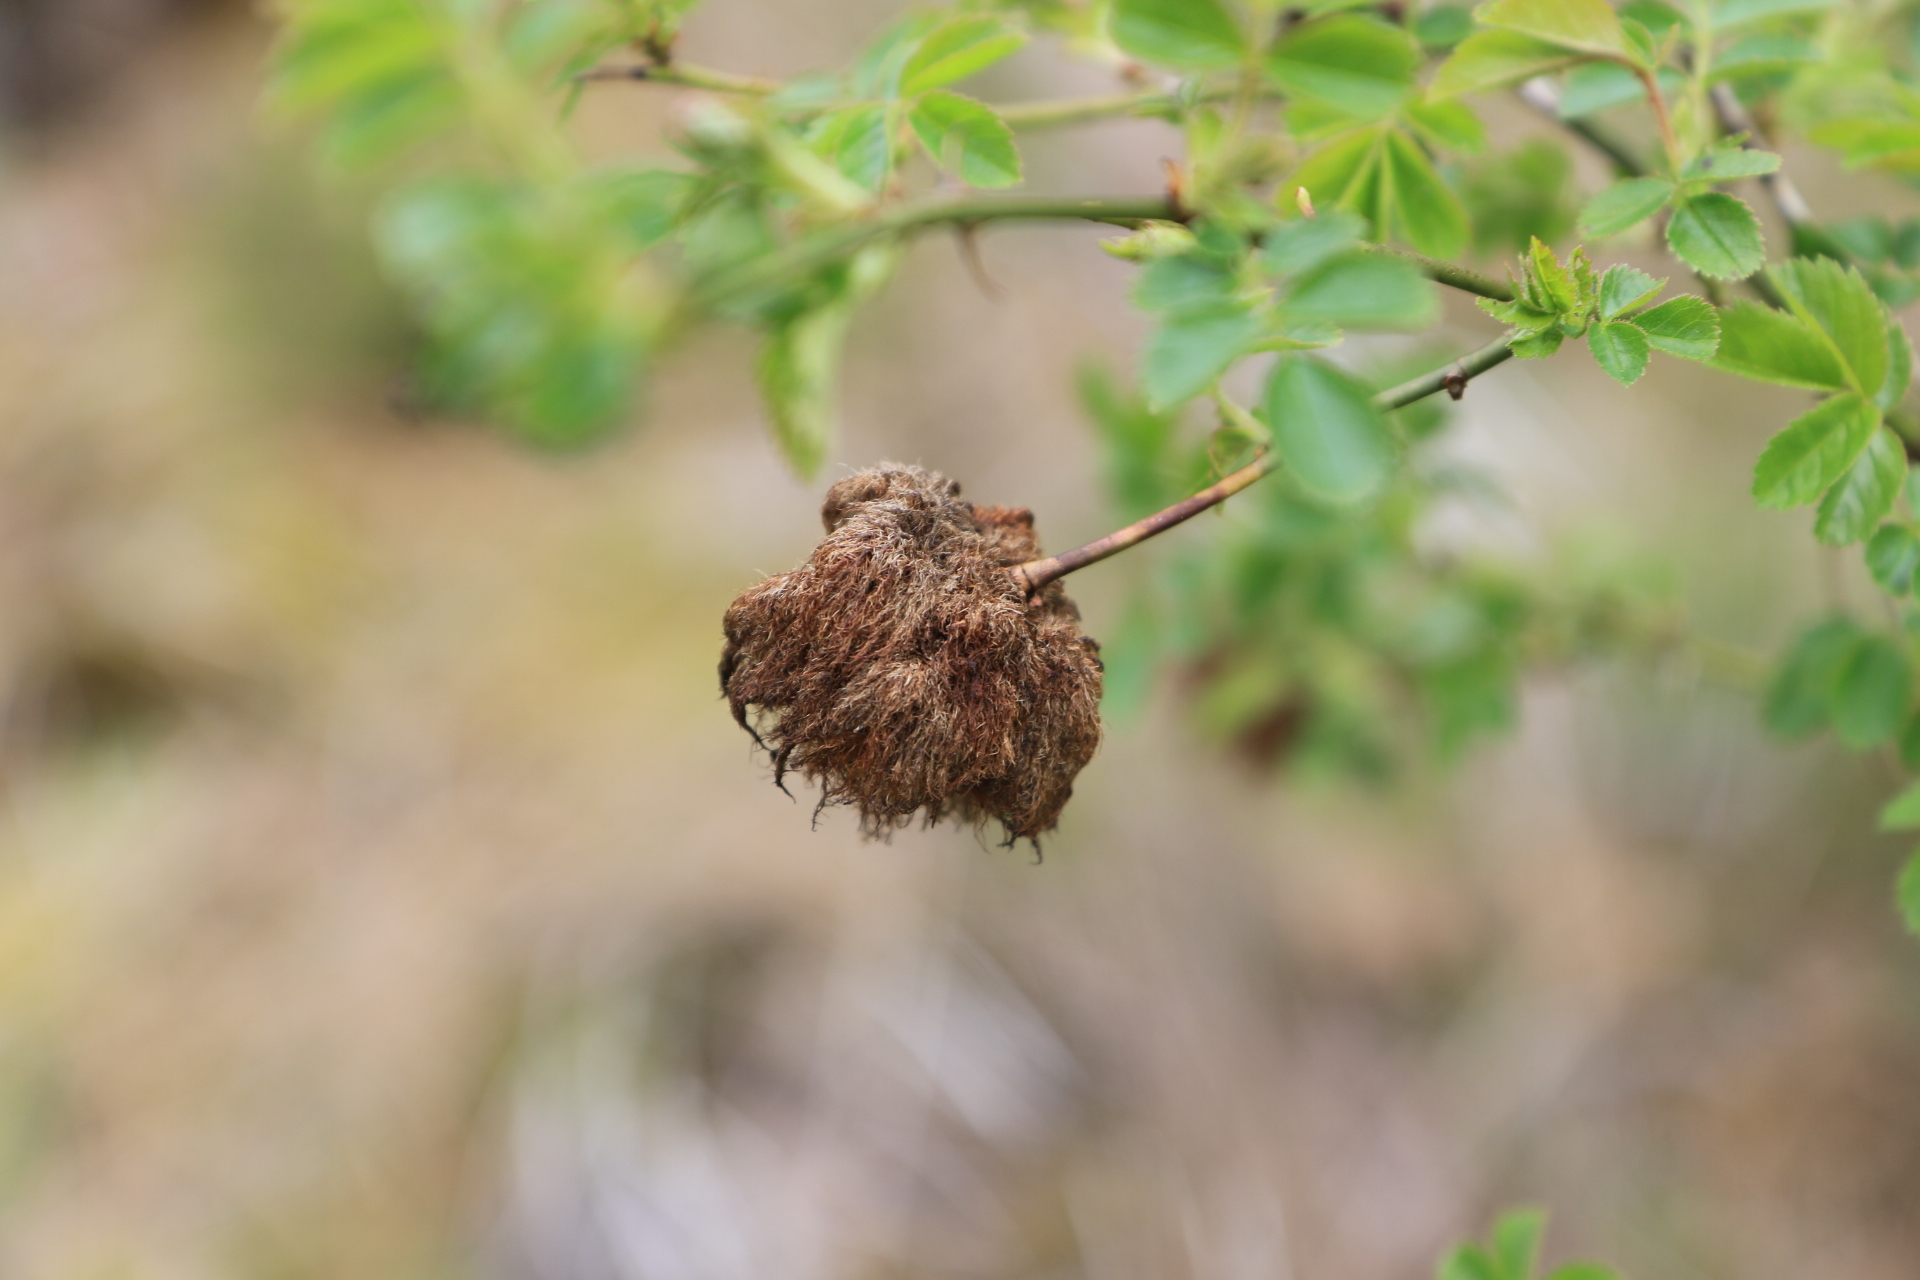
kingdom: Animalia
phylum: Arthropoda
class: Insecta
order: Hymenoptera
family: Cynipidae
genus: Diplolepis
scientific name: Diplolepis rosae
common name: Bedeguar gall
